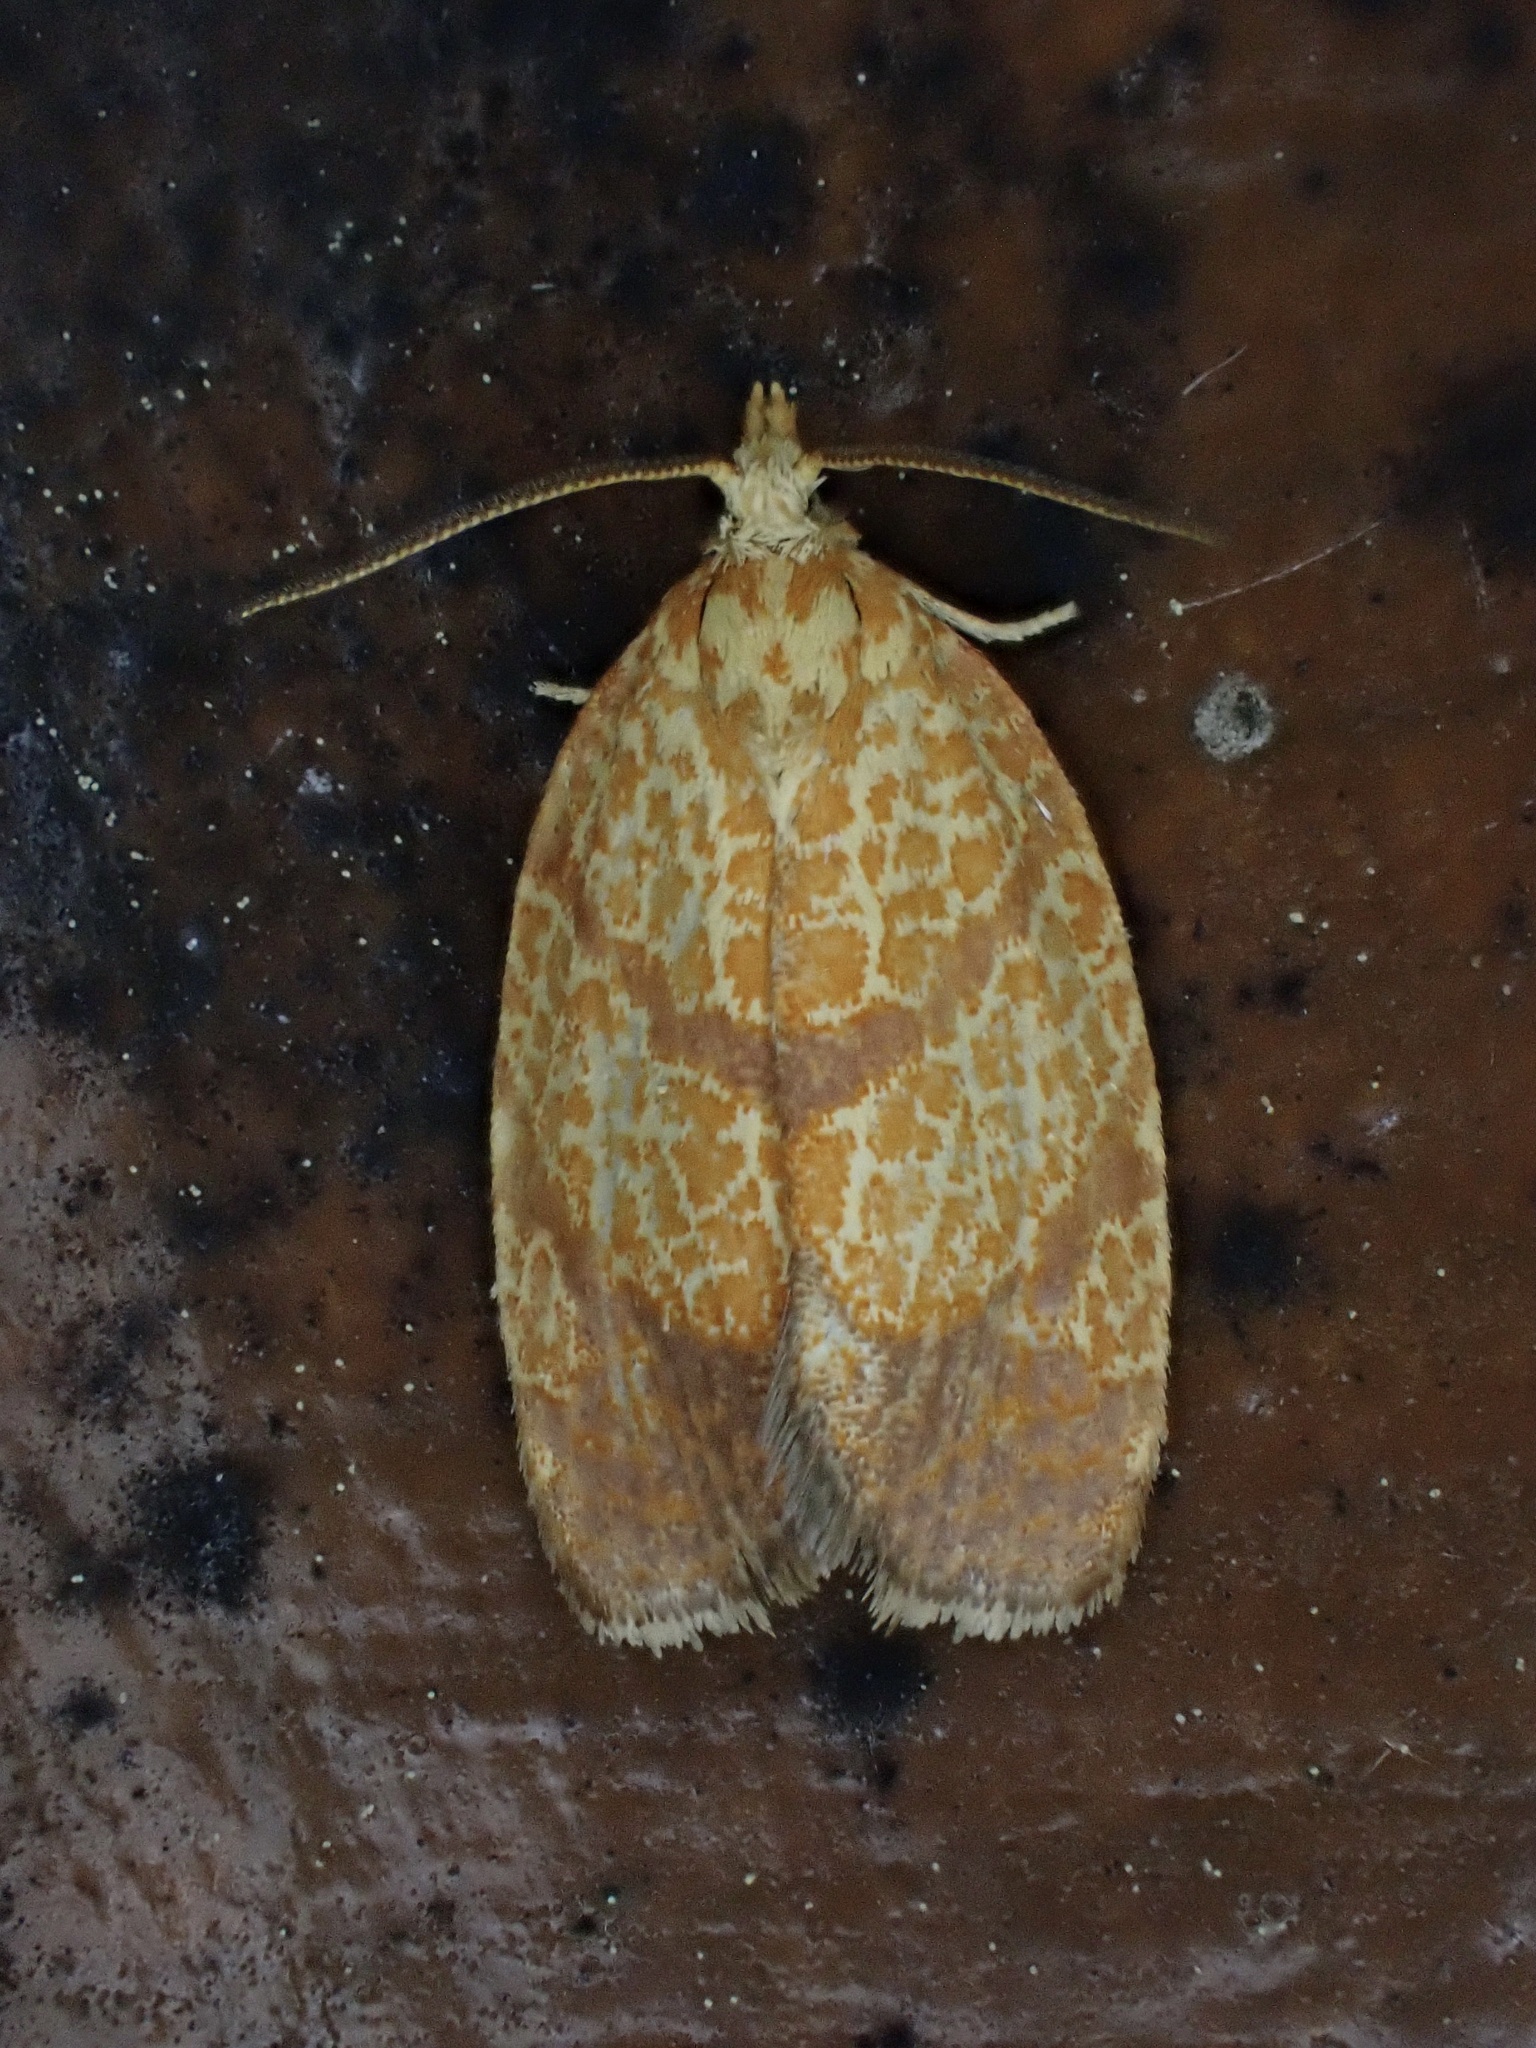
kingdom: Animalia
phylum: Arthropoda
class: Insecta
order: Lepidoptera
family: Tortricidae
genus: Argyrotaenia
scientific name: Argyrotaenia quadrifasciana
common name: Four-lined leafroller moth
